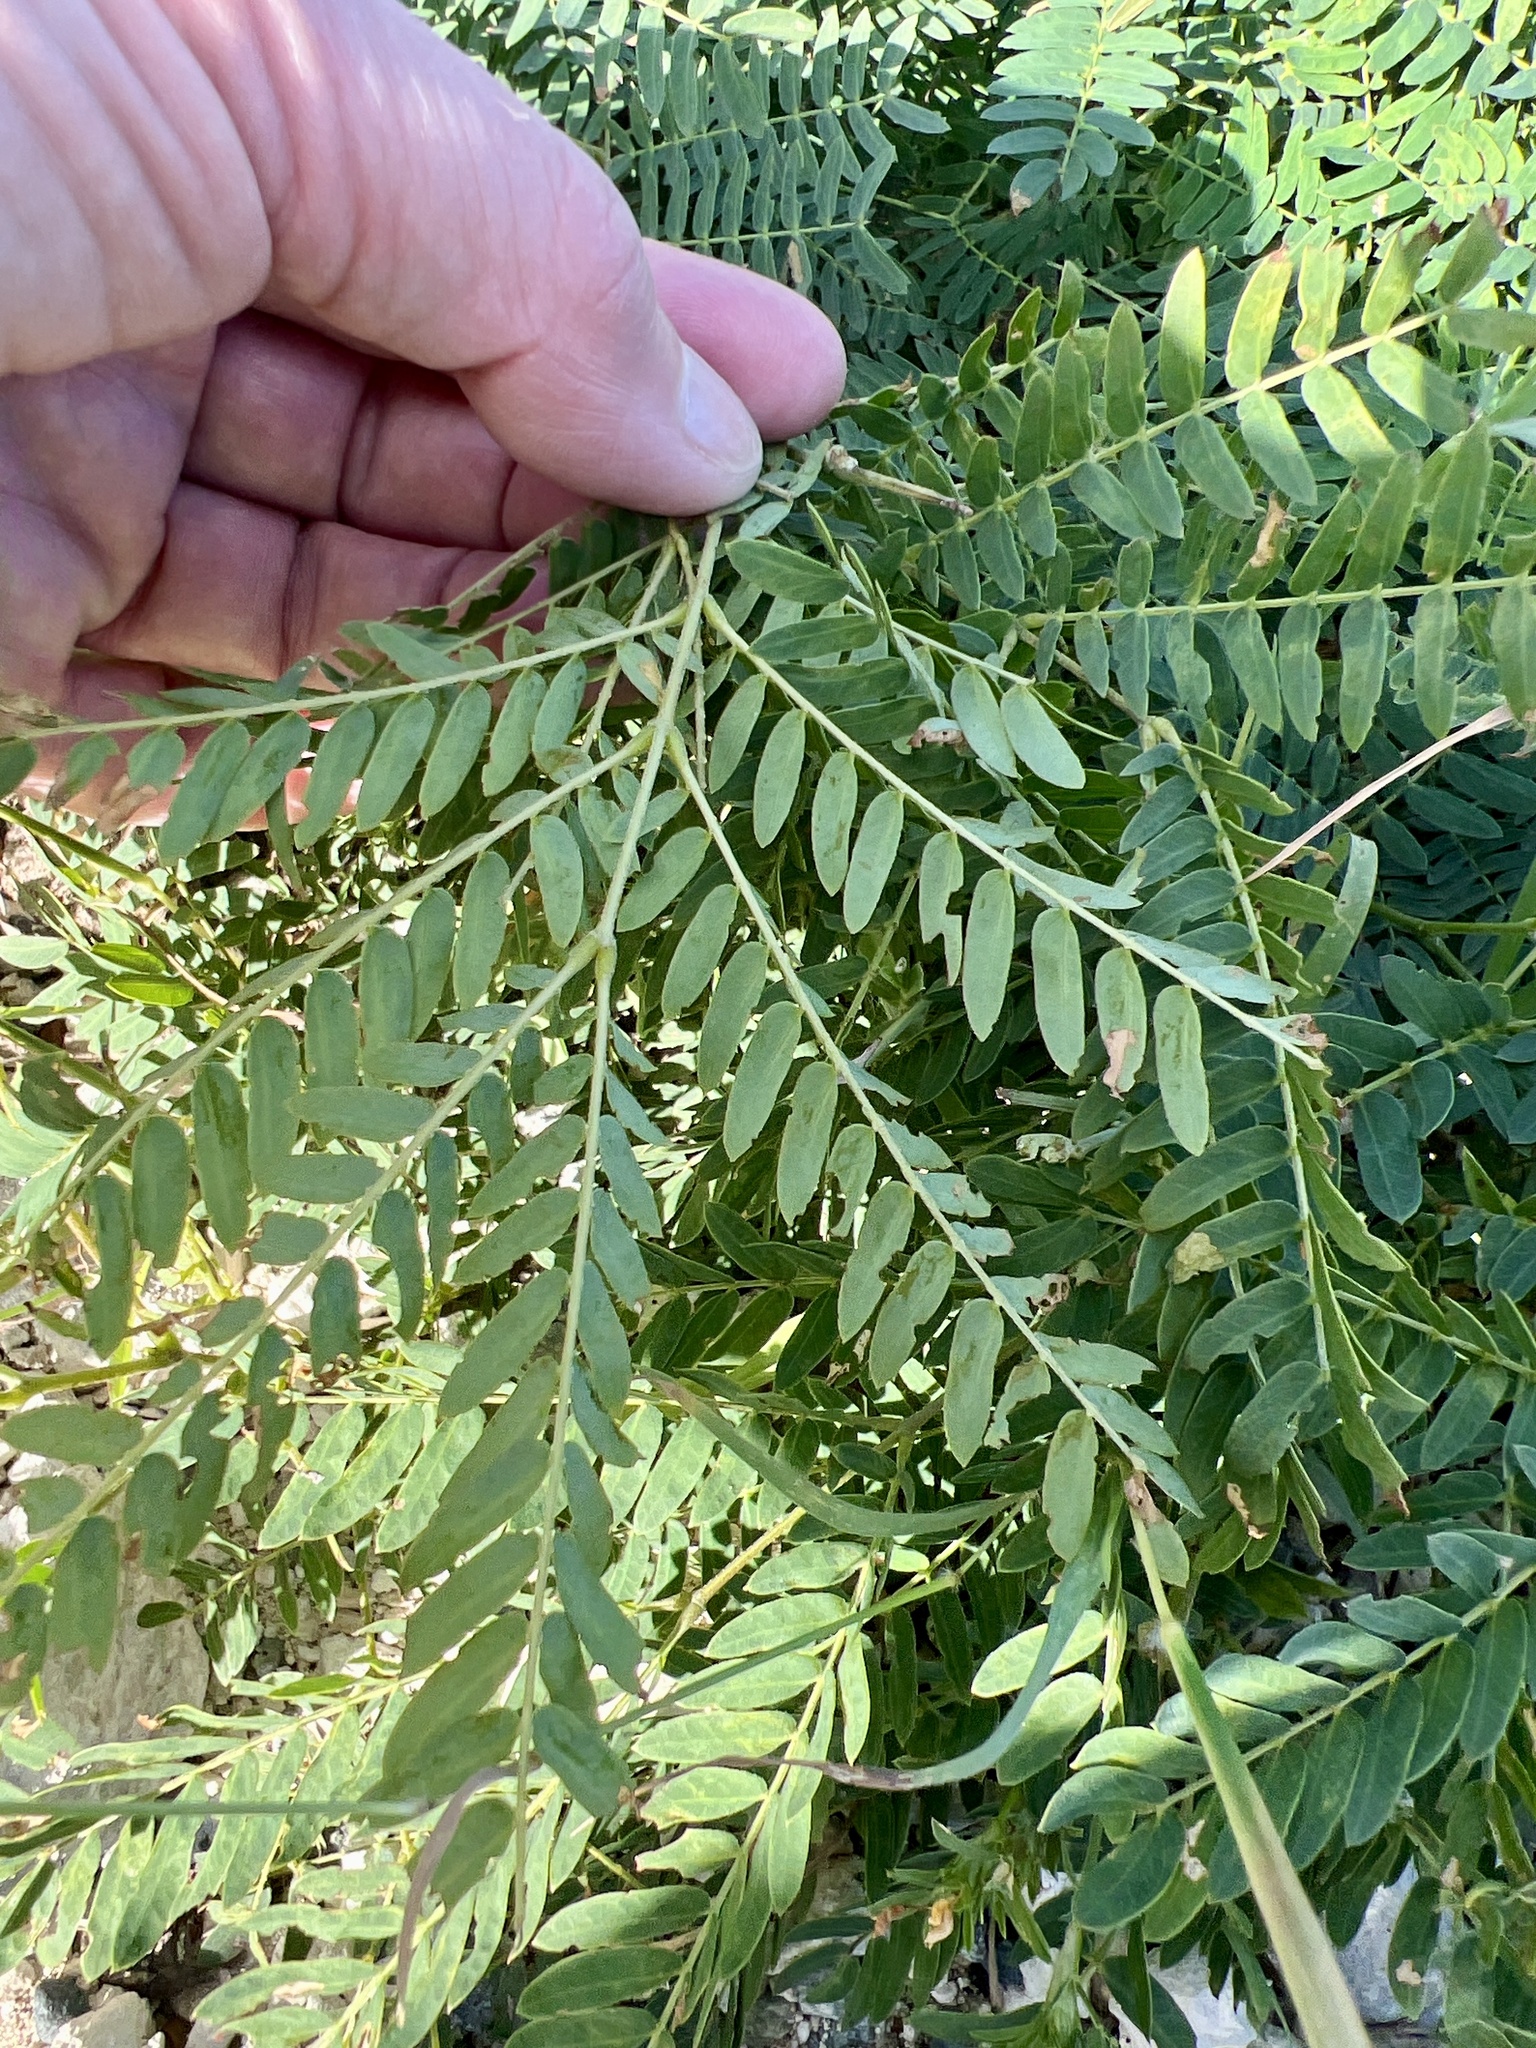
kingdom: Plantae
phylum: Tracheophyta
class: Magnoliopsida
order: Fabales
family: Fabaceae
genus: Leucaena
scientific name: Leucaena leucocephala
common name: White leadtree
